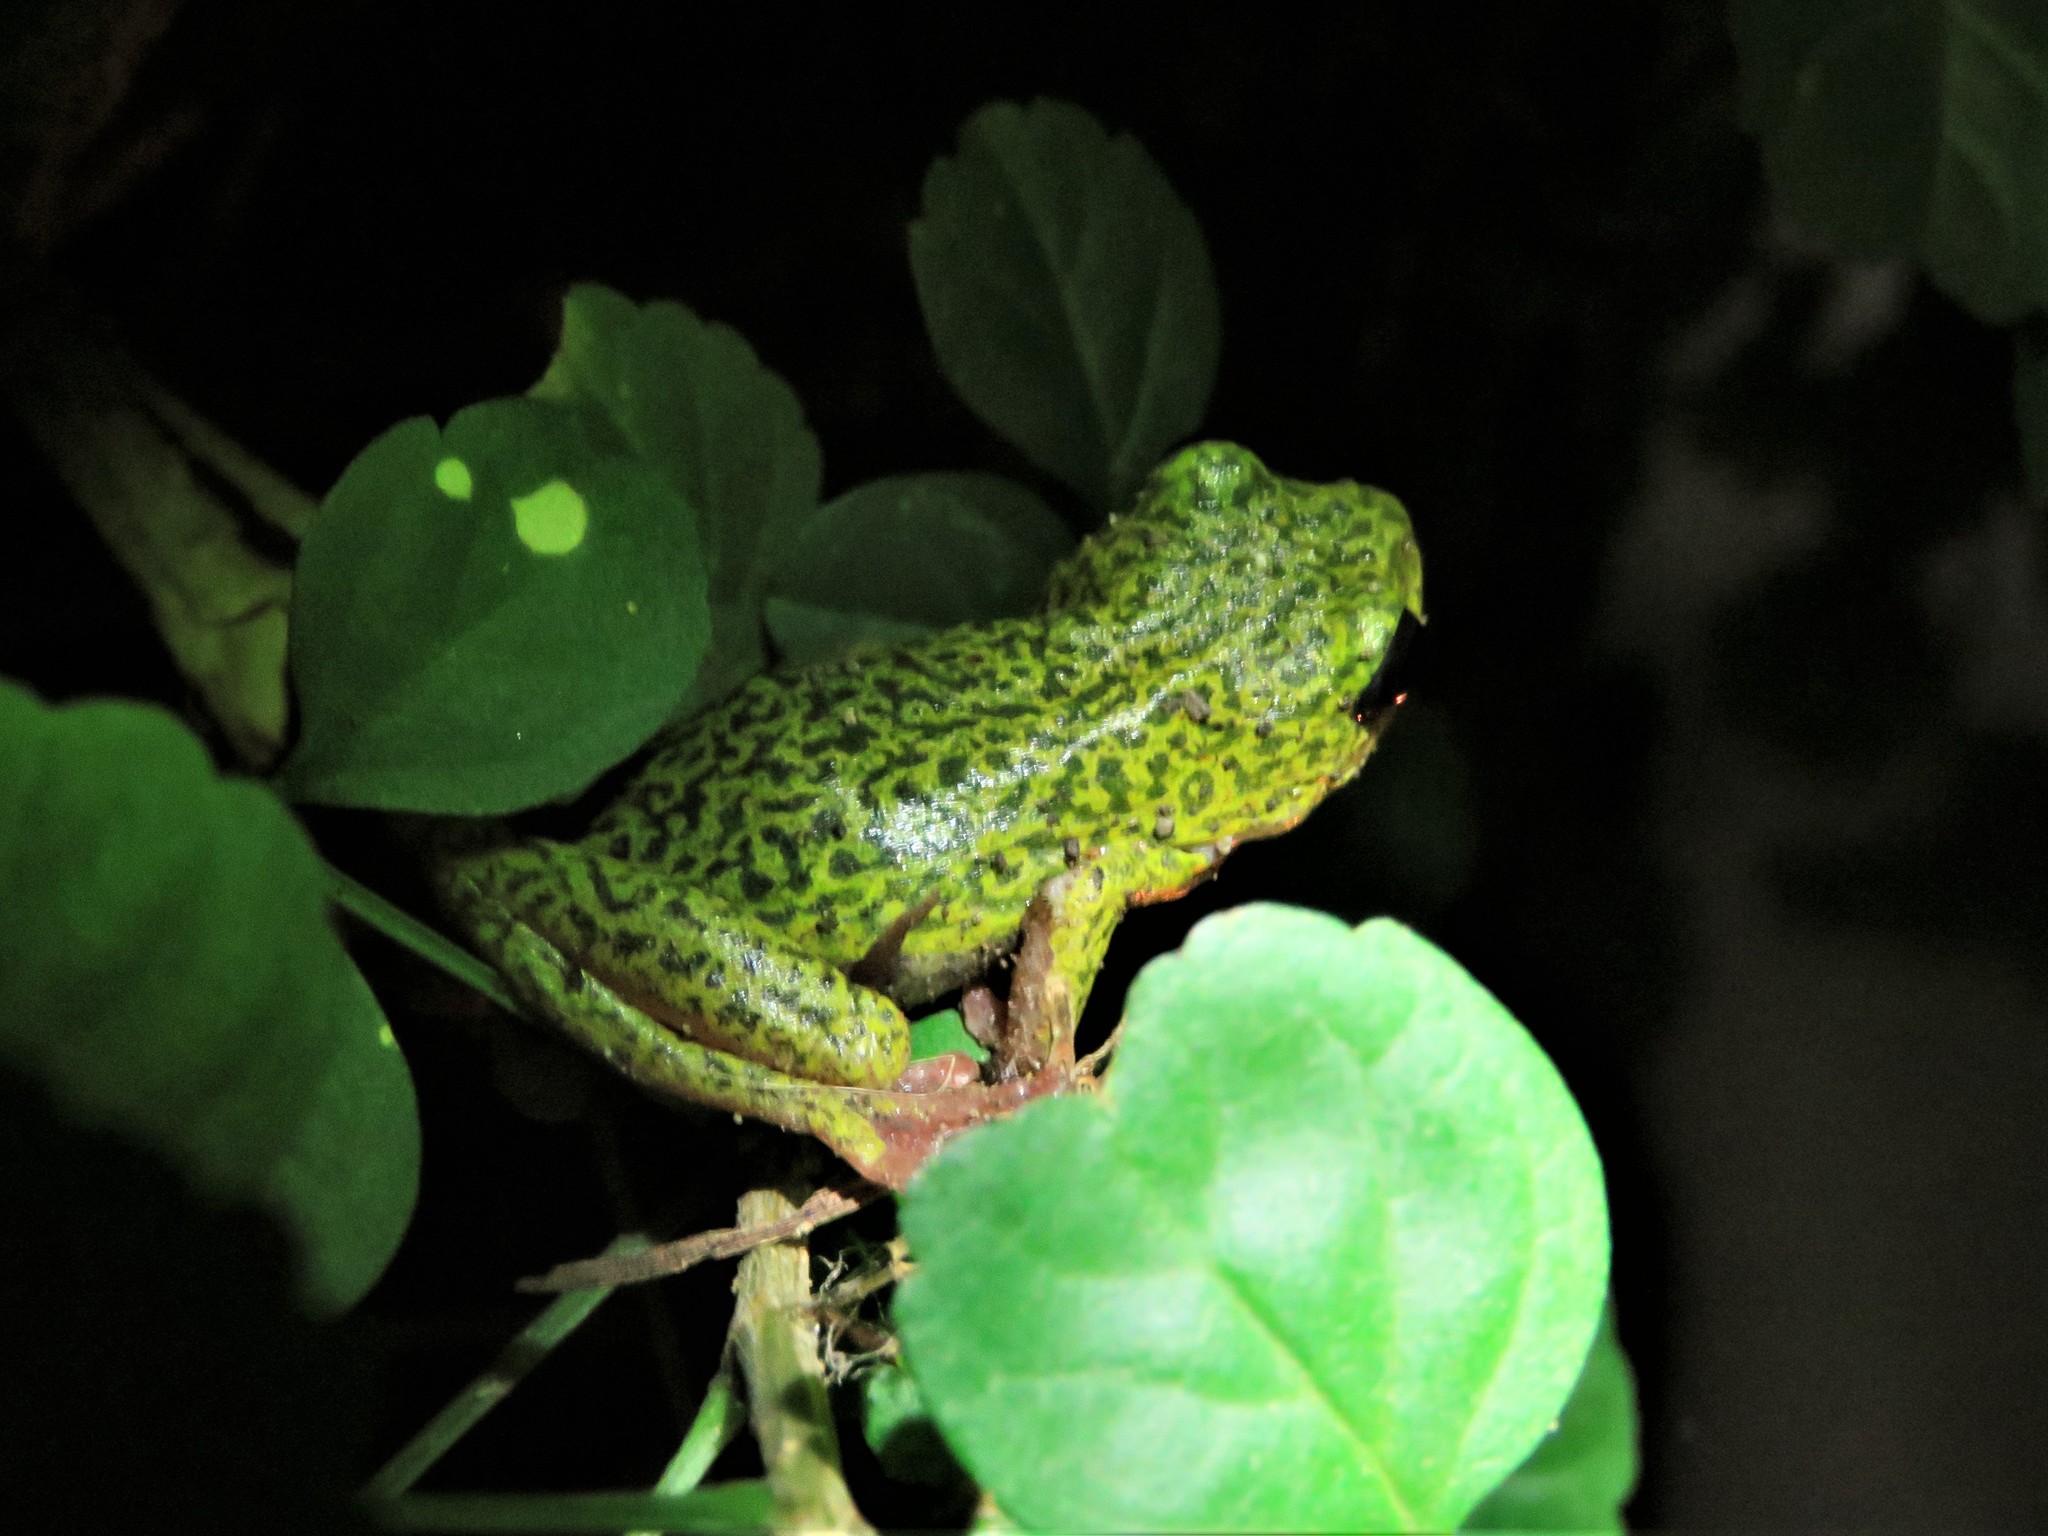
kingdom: Animalia
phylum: Chordata
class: Amphibia
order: Anura
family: Hyperoliidae
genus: Hyperolius
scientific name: Hyperolius viridiflavus
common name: Common reed frog
